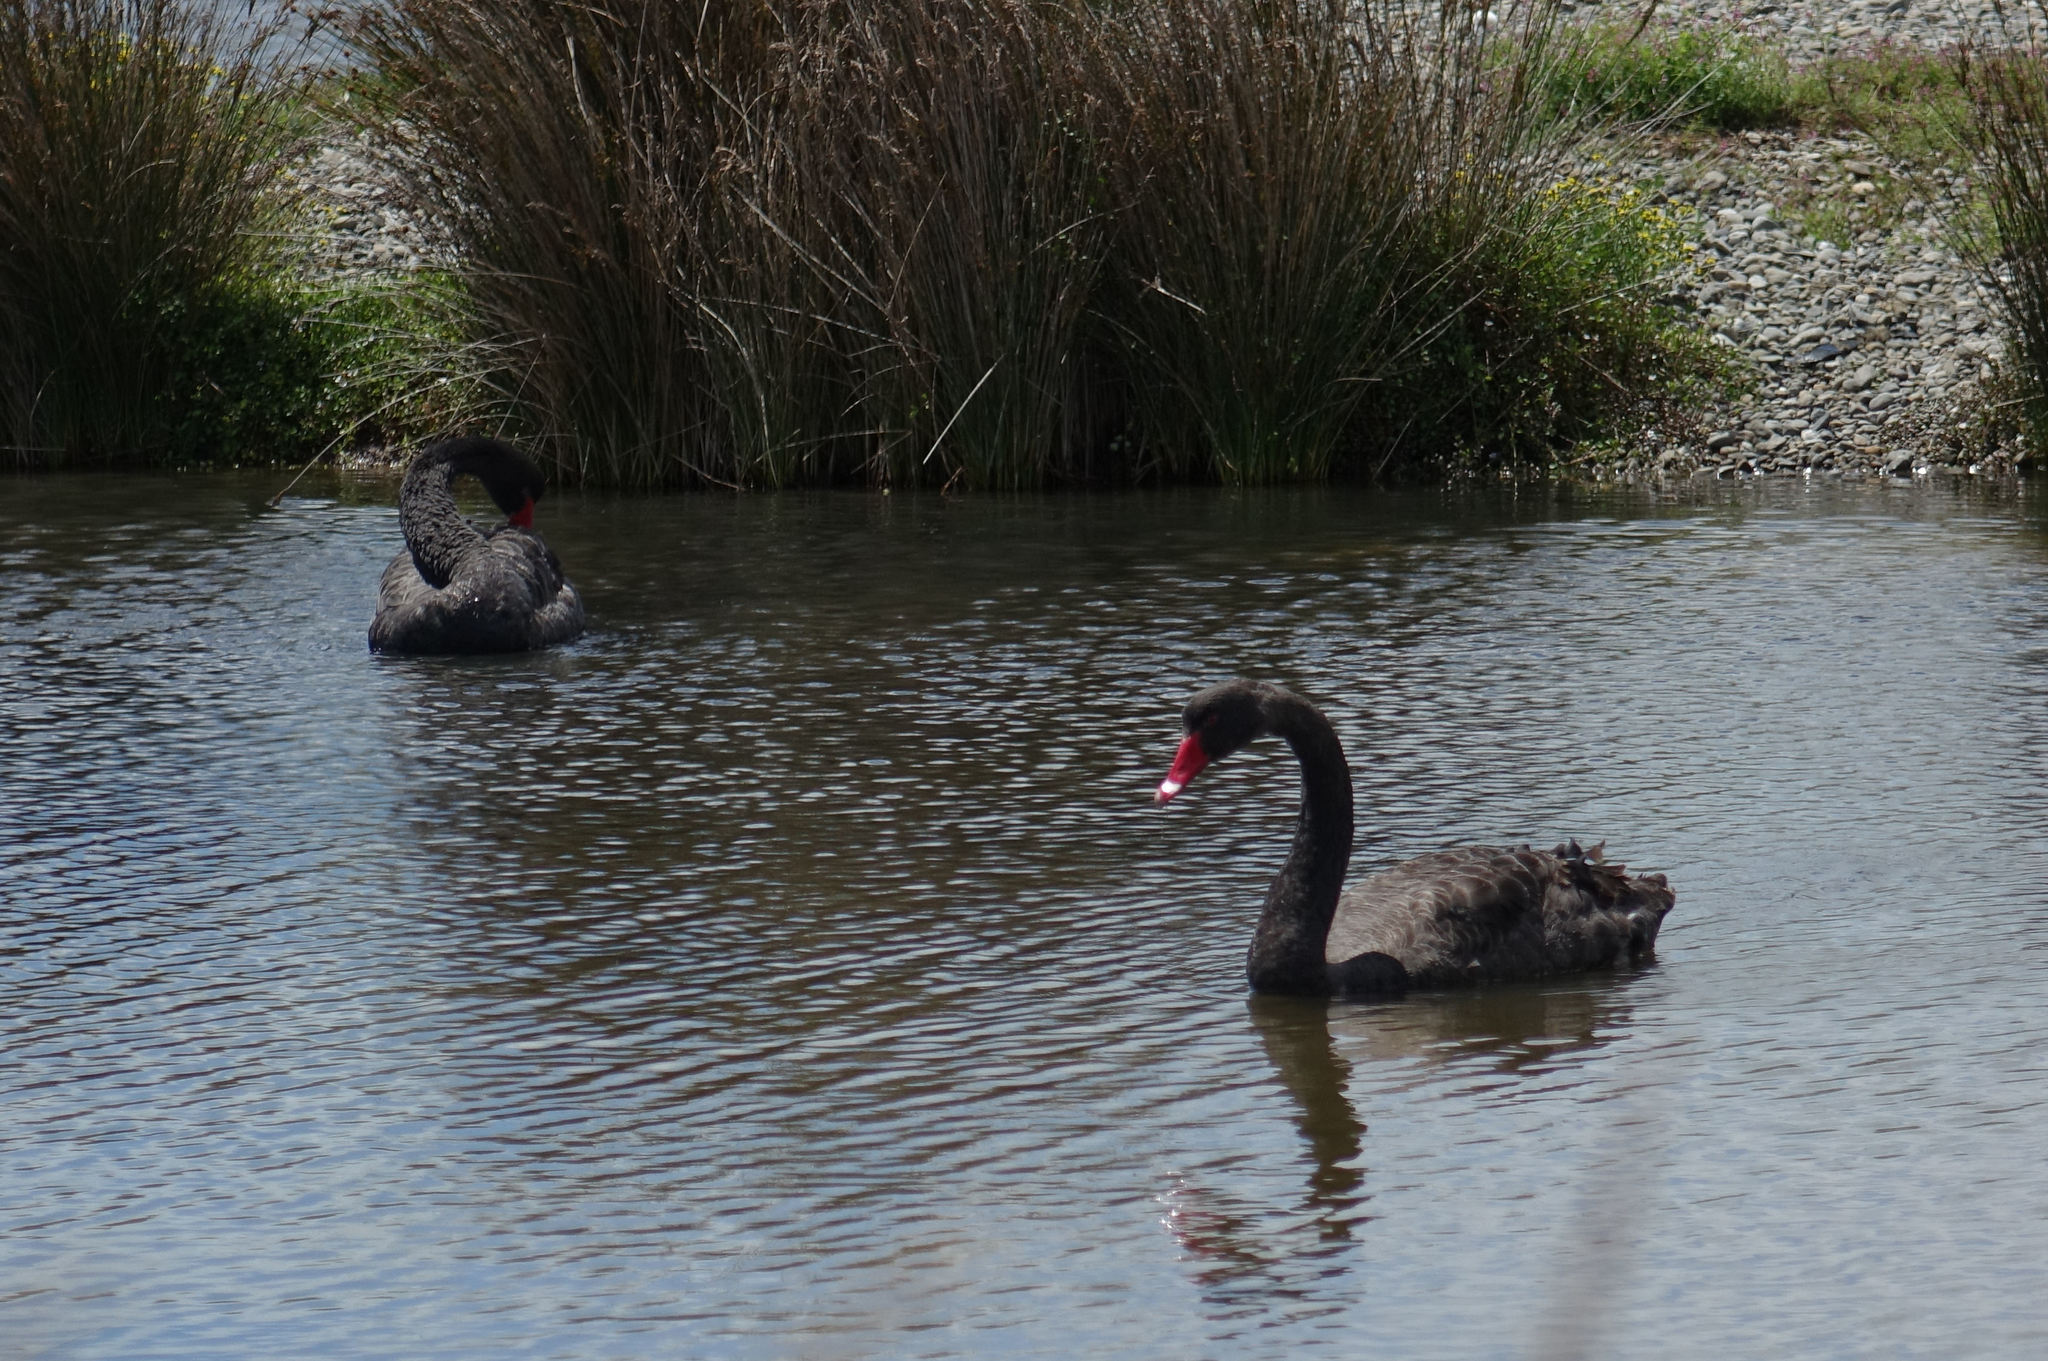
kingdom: Animalia
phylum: Chordata
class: Aves
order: Anseriformes
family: Anatidae
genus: Cygnus
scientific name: Cygnus atratus
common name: Black swan
